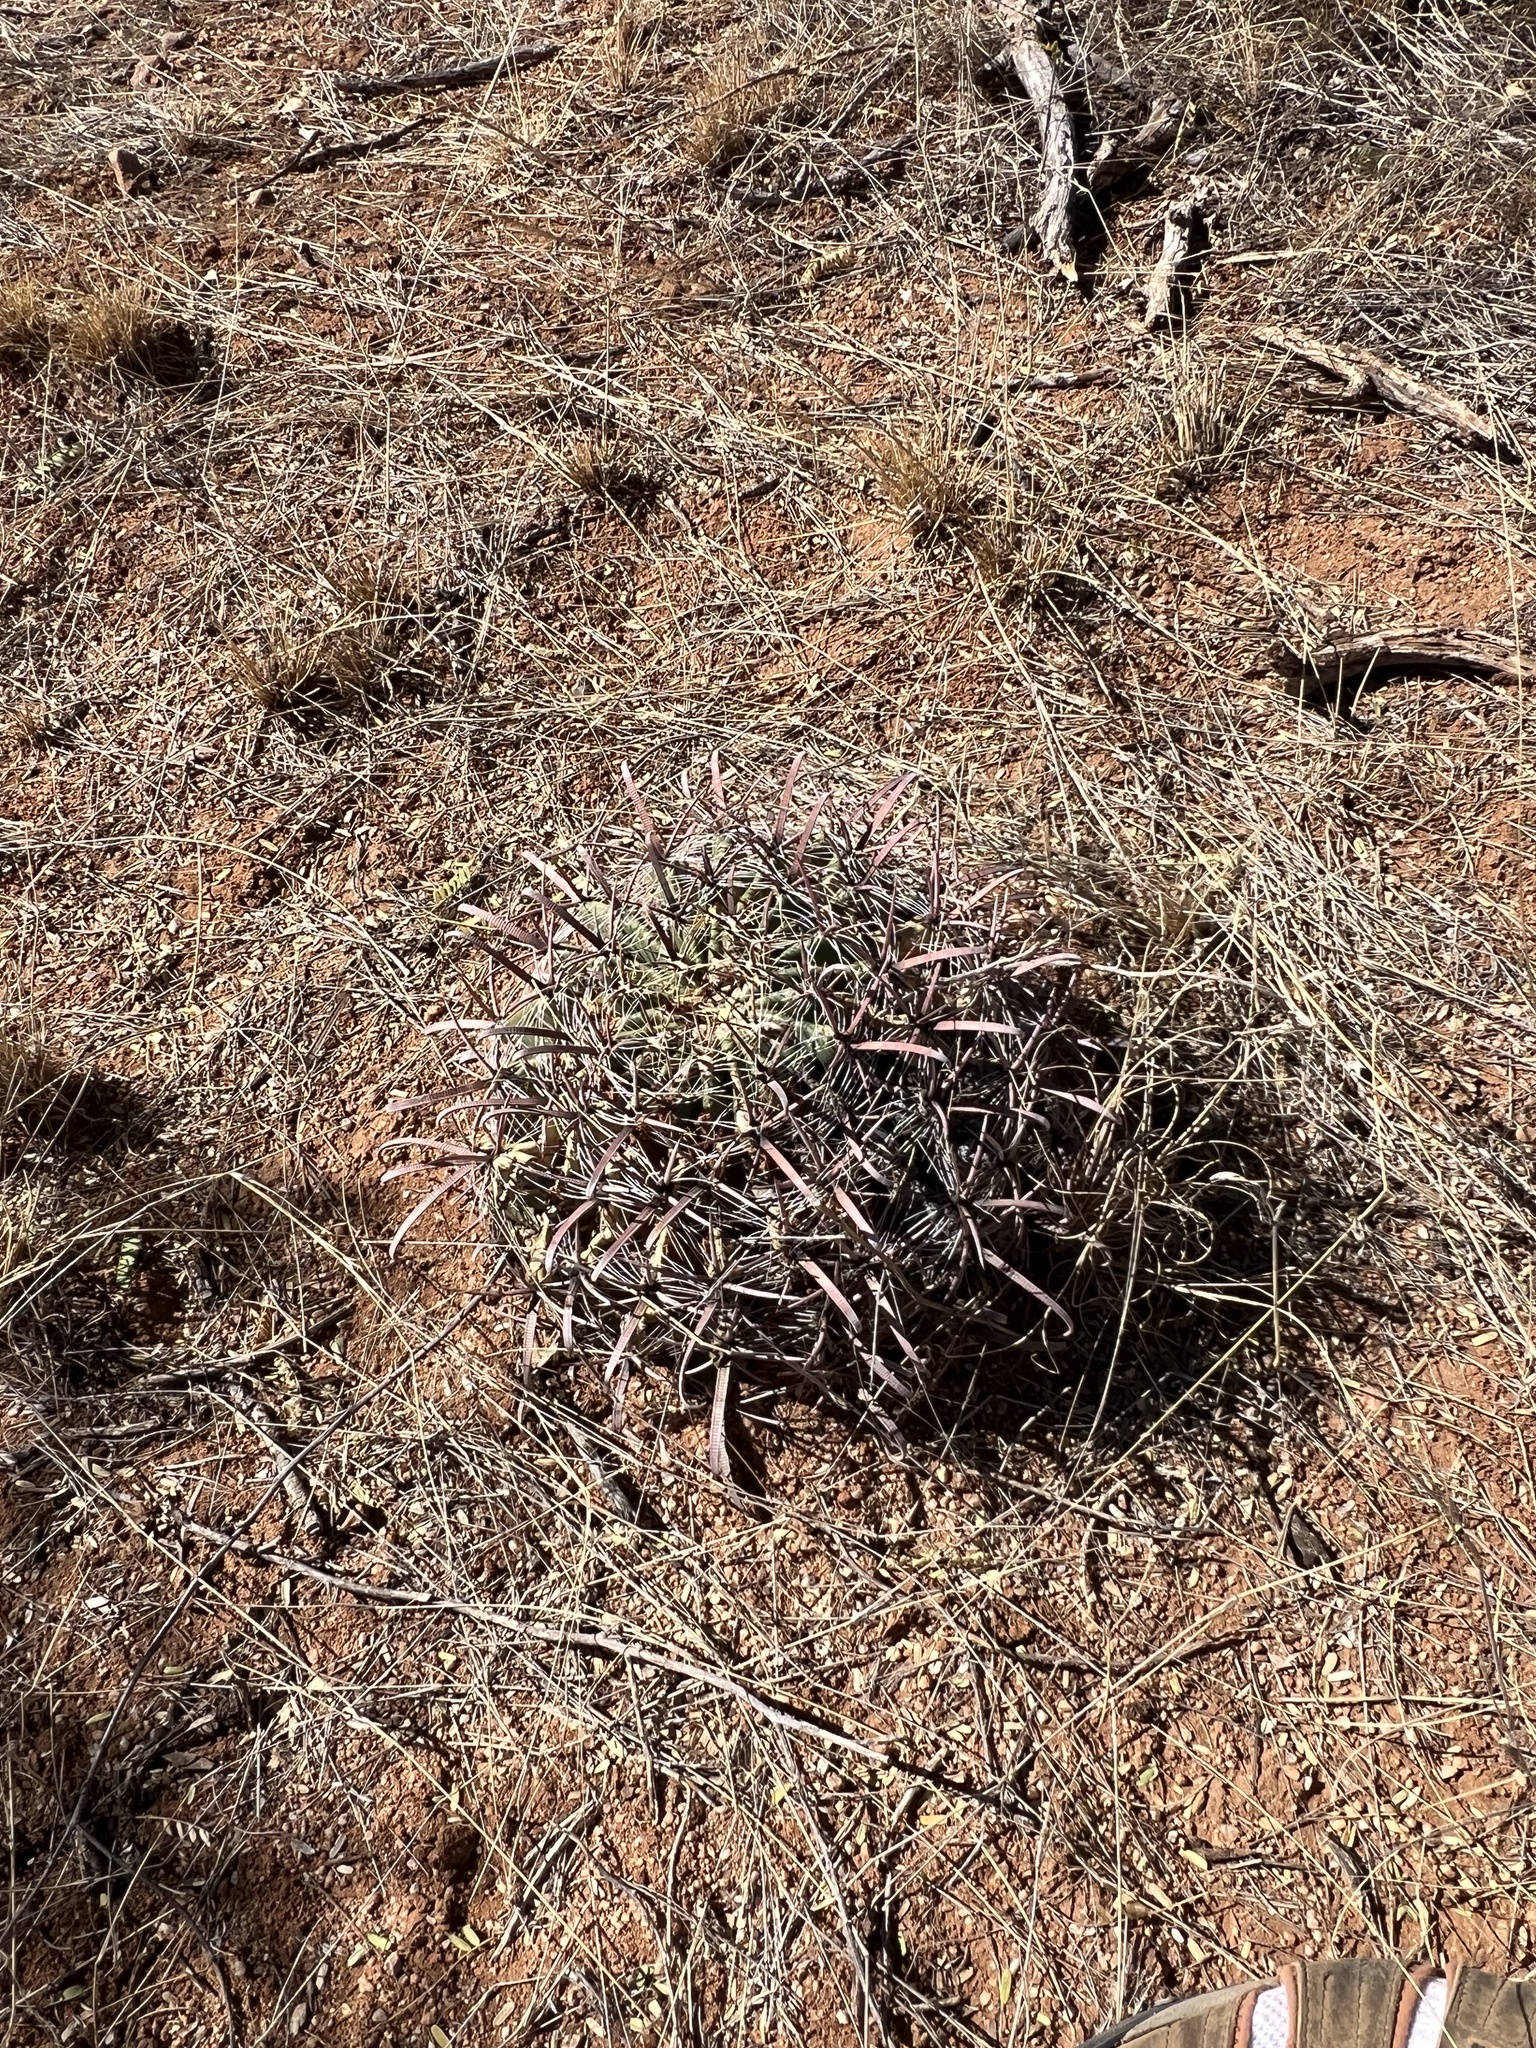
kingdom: Plantae
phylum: Tracheophyta
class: Magnoliopsida
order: Caryophyllales
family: Cactaceae
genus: Ferocactus
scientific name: Ferocactus wislizeni
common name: Candy barrel cactus
